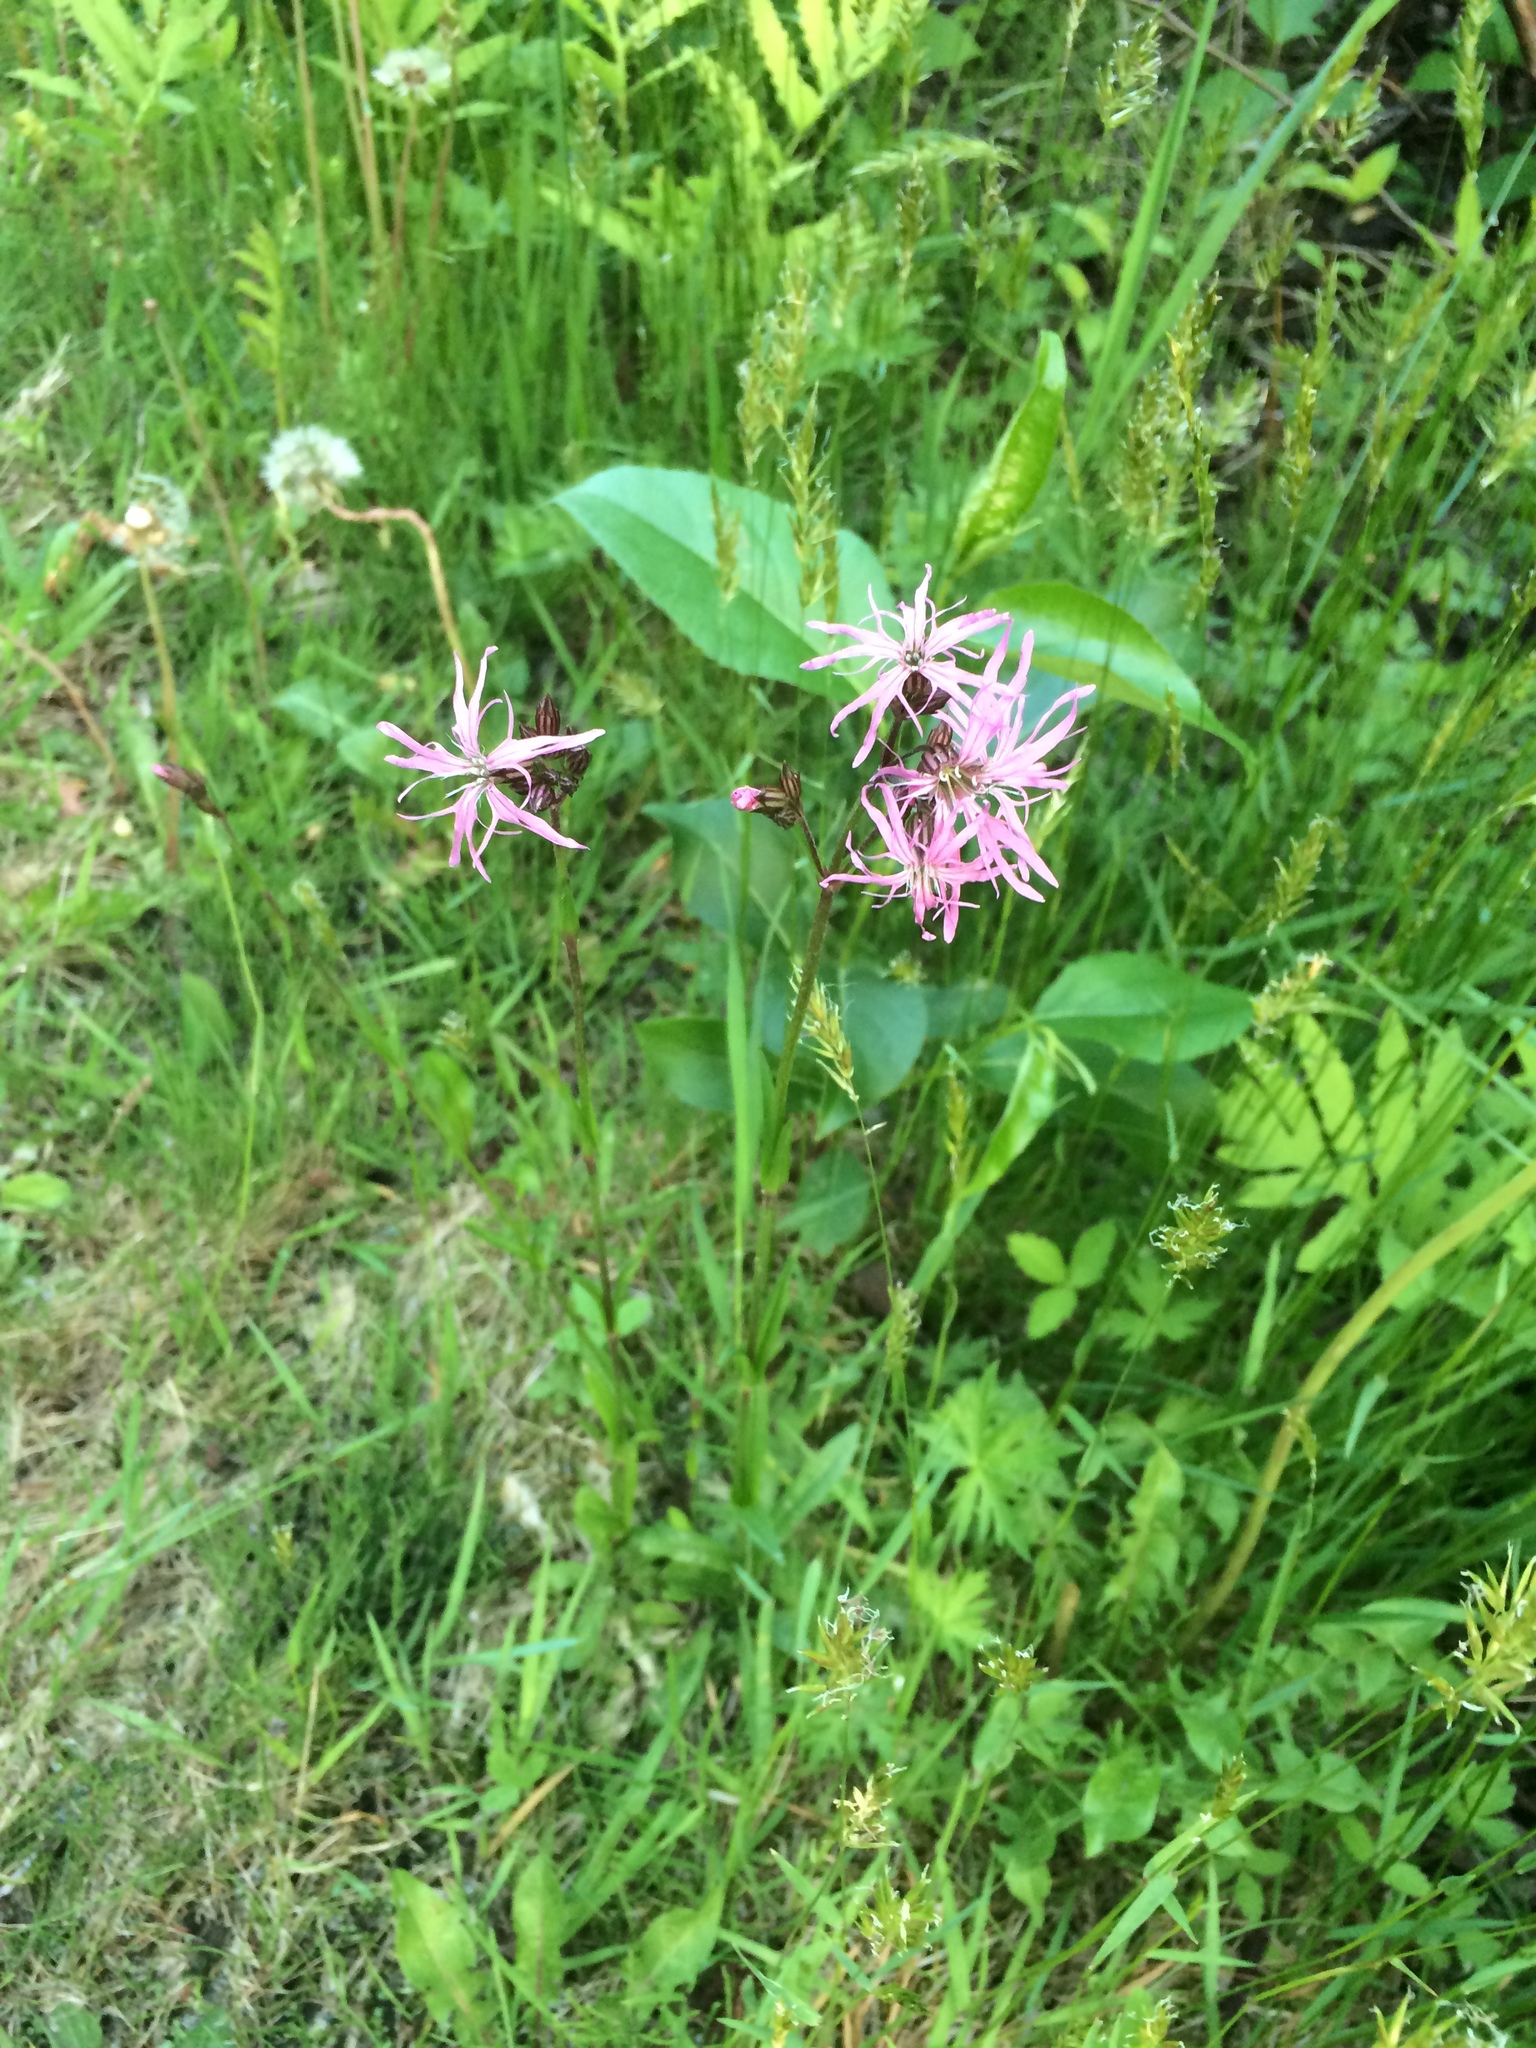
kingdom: Plantae
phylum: Tracheophyta
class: Magnoliopsida
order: Caryophyllales
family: Caryophyllaceae
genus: Silene
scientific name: Silene flos-cuculi
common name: Ragged-robin
